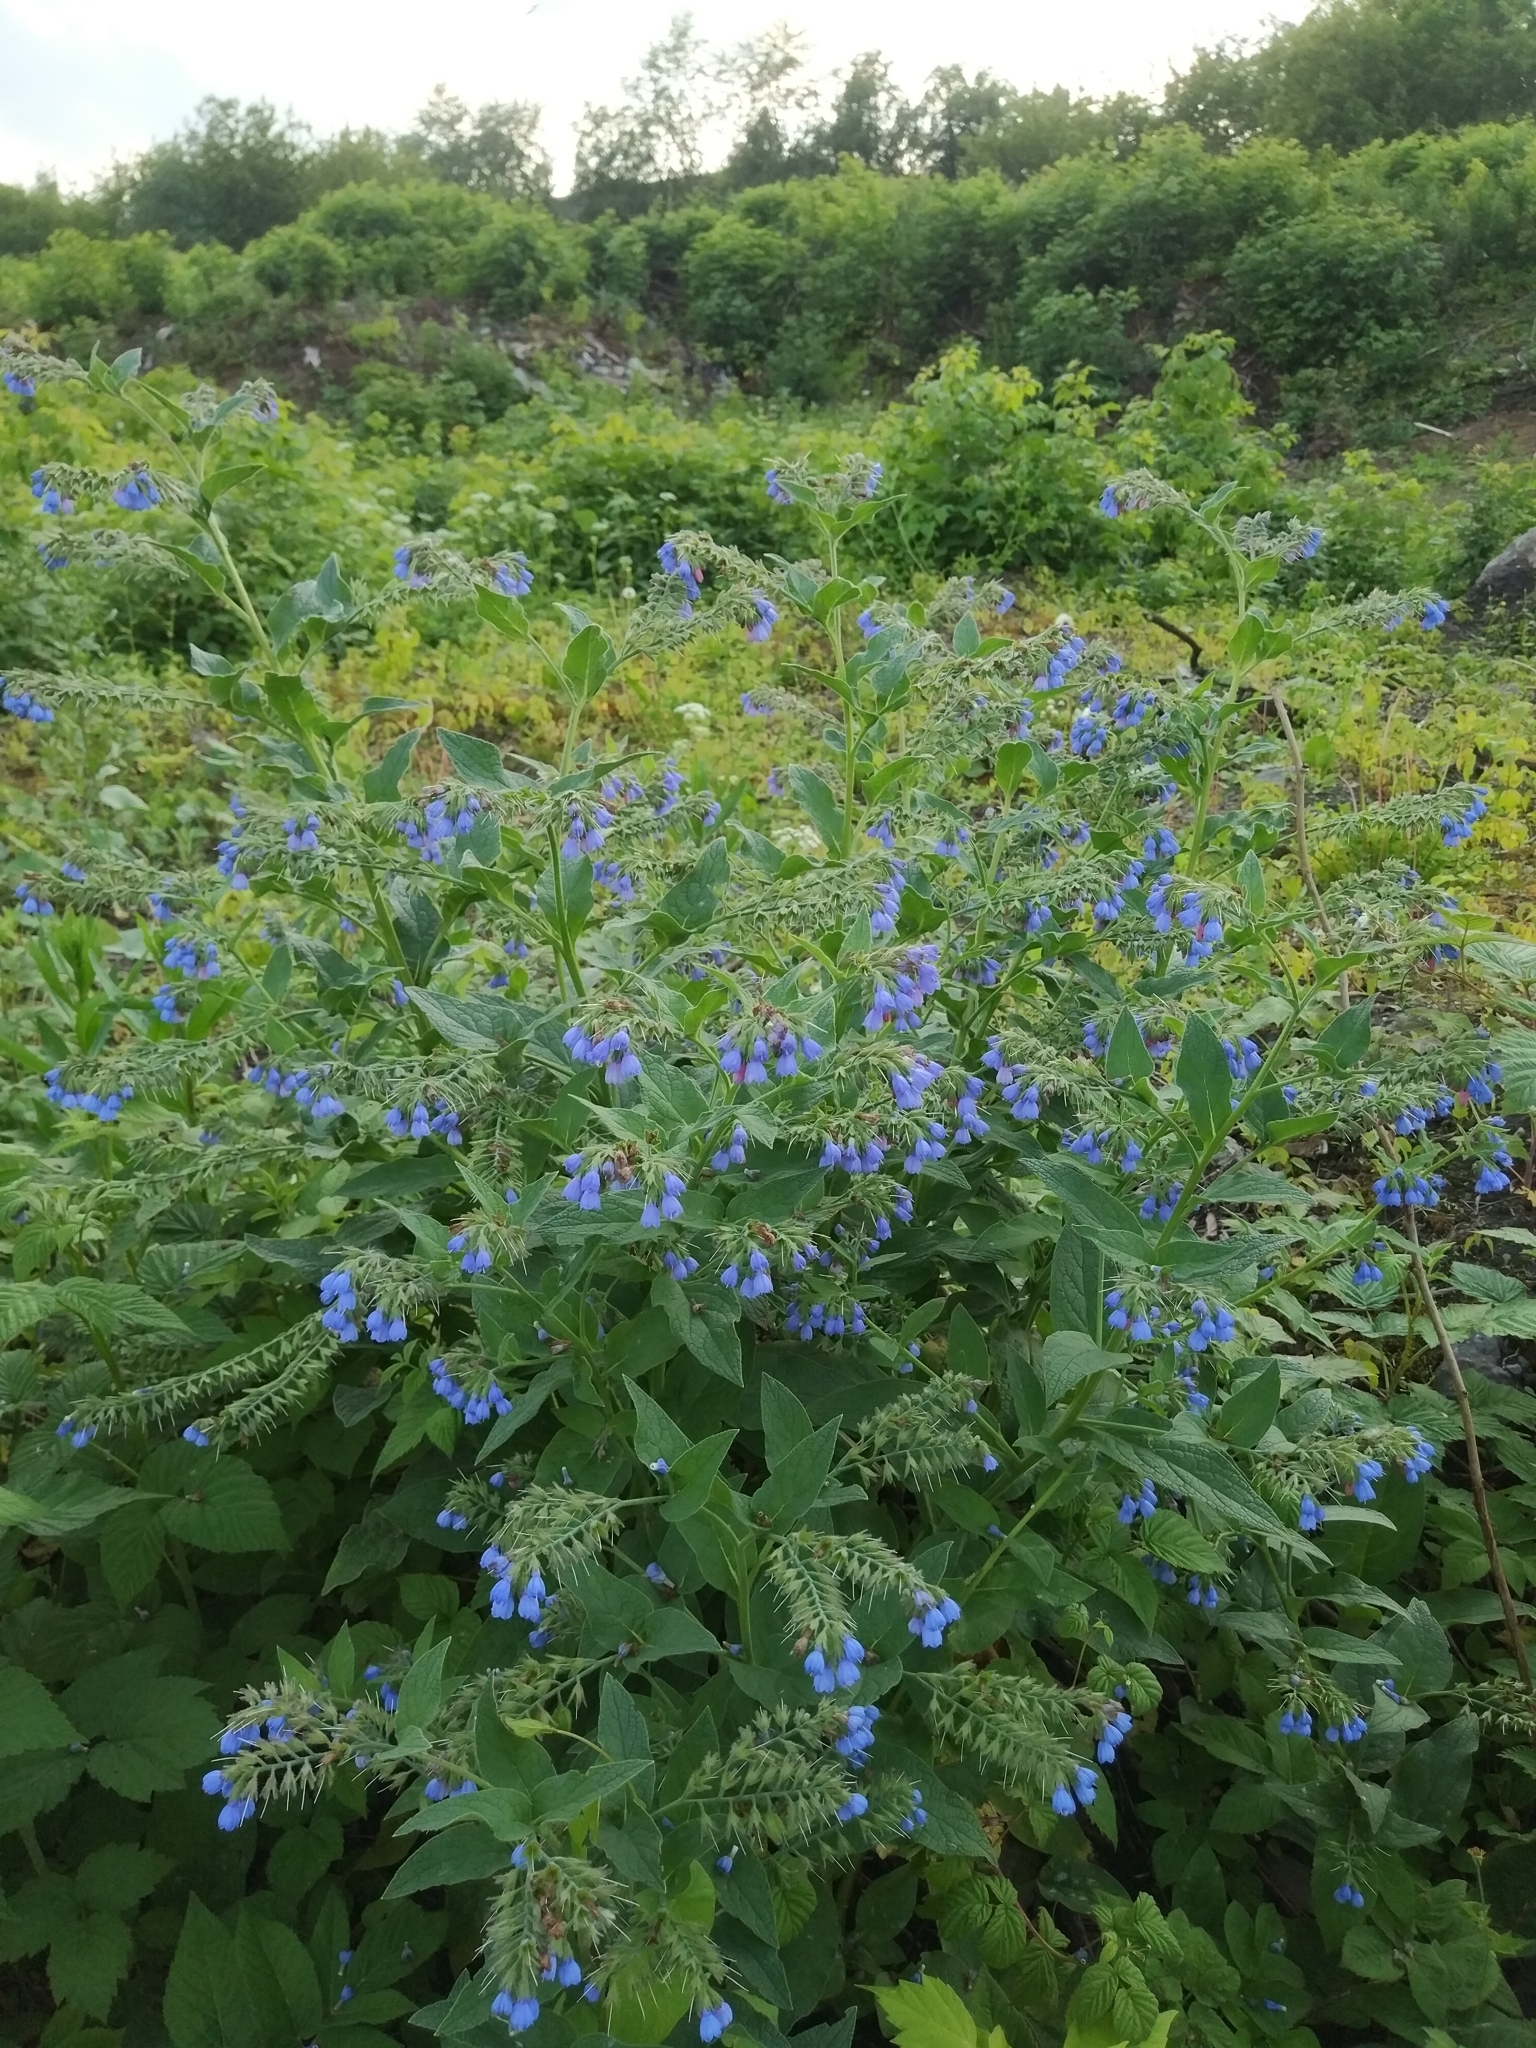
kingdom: Plantae
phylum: Tracheophyta
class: Magnoliopsida
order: Boraginales
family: Boraginaceae
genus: Symphytum
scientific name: Symphytum caucasicum
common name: Caucasian comfrey
